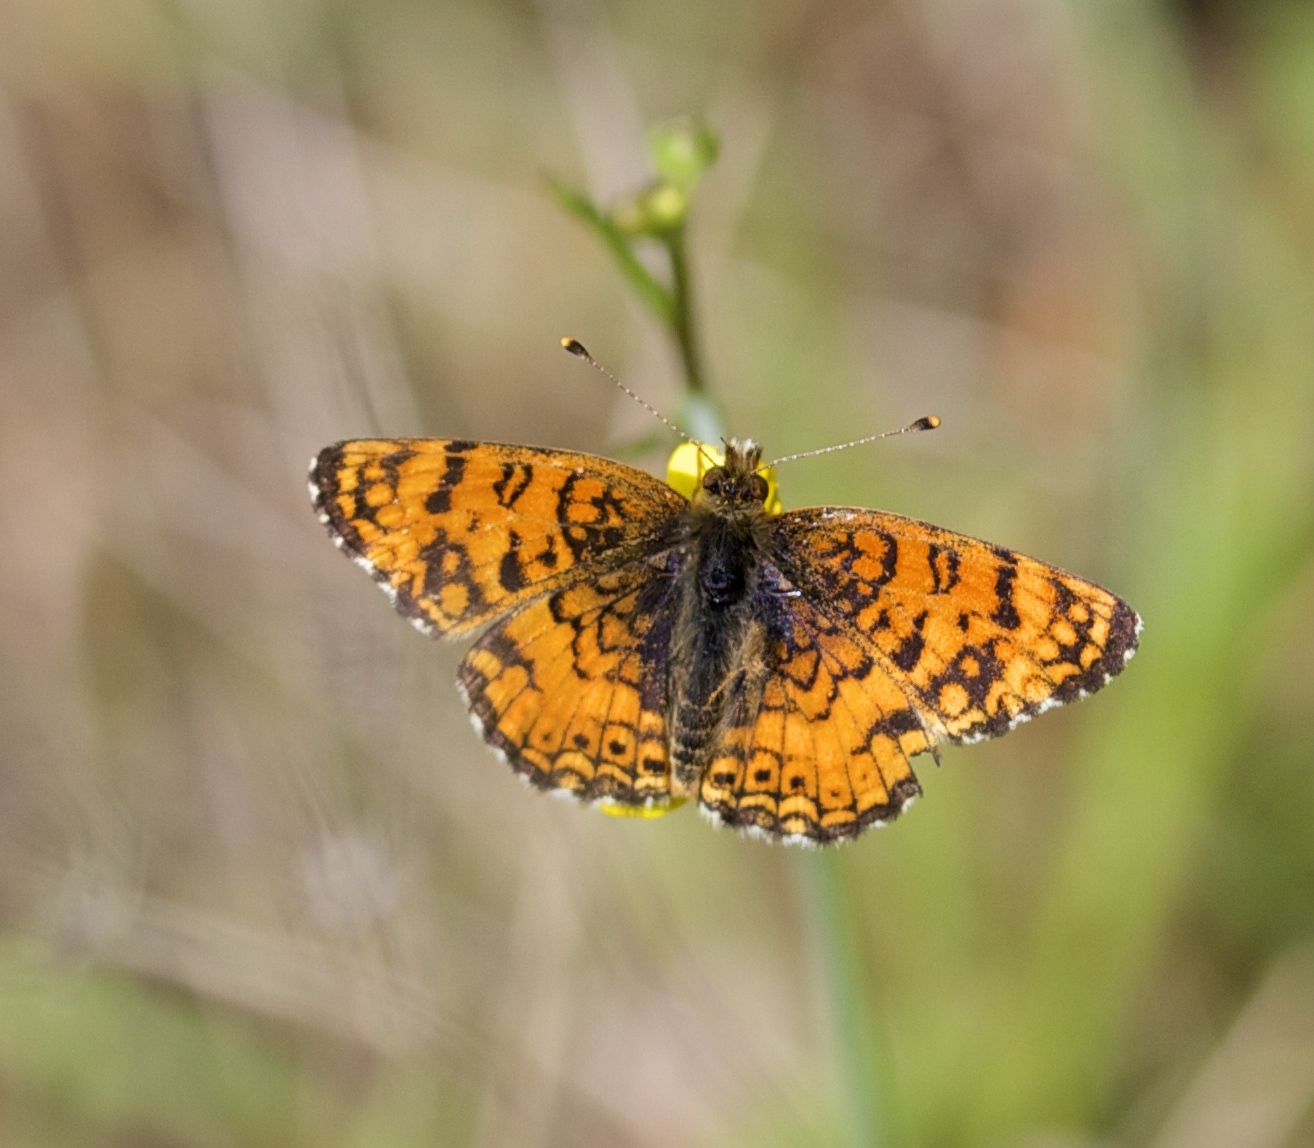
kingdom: Animalia
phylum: Arthropoda
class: Insecta
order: Lepidoptera
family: Nymphalidae
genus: Eresia
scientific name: Eresia aveyrona
